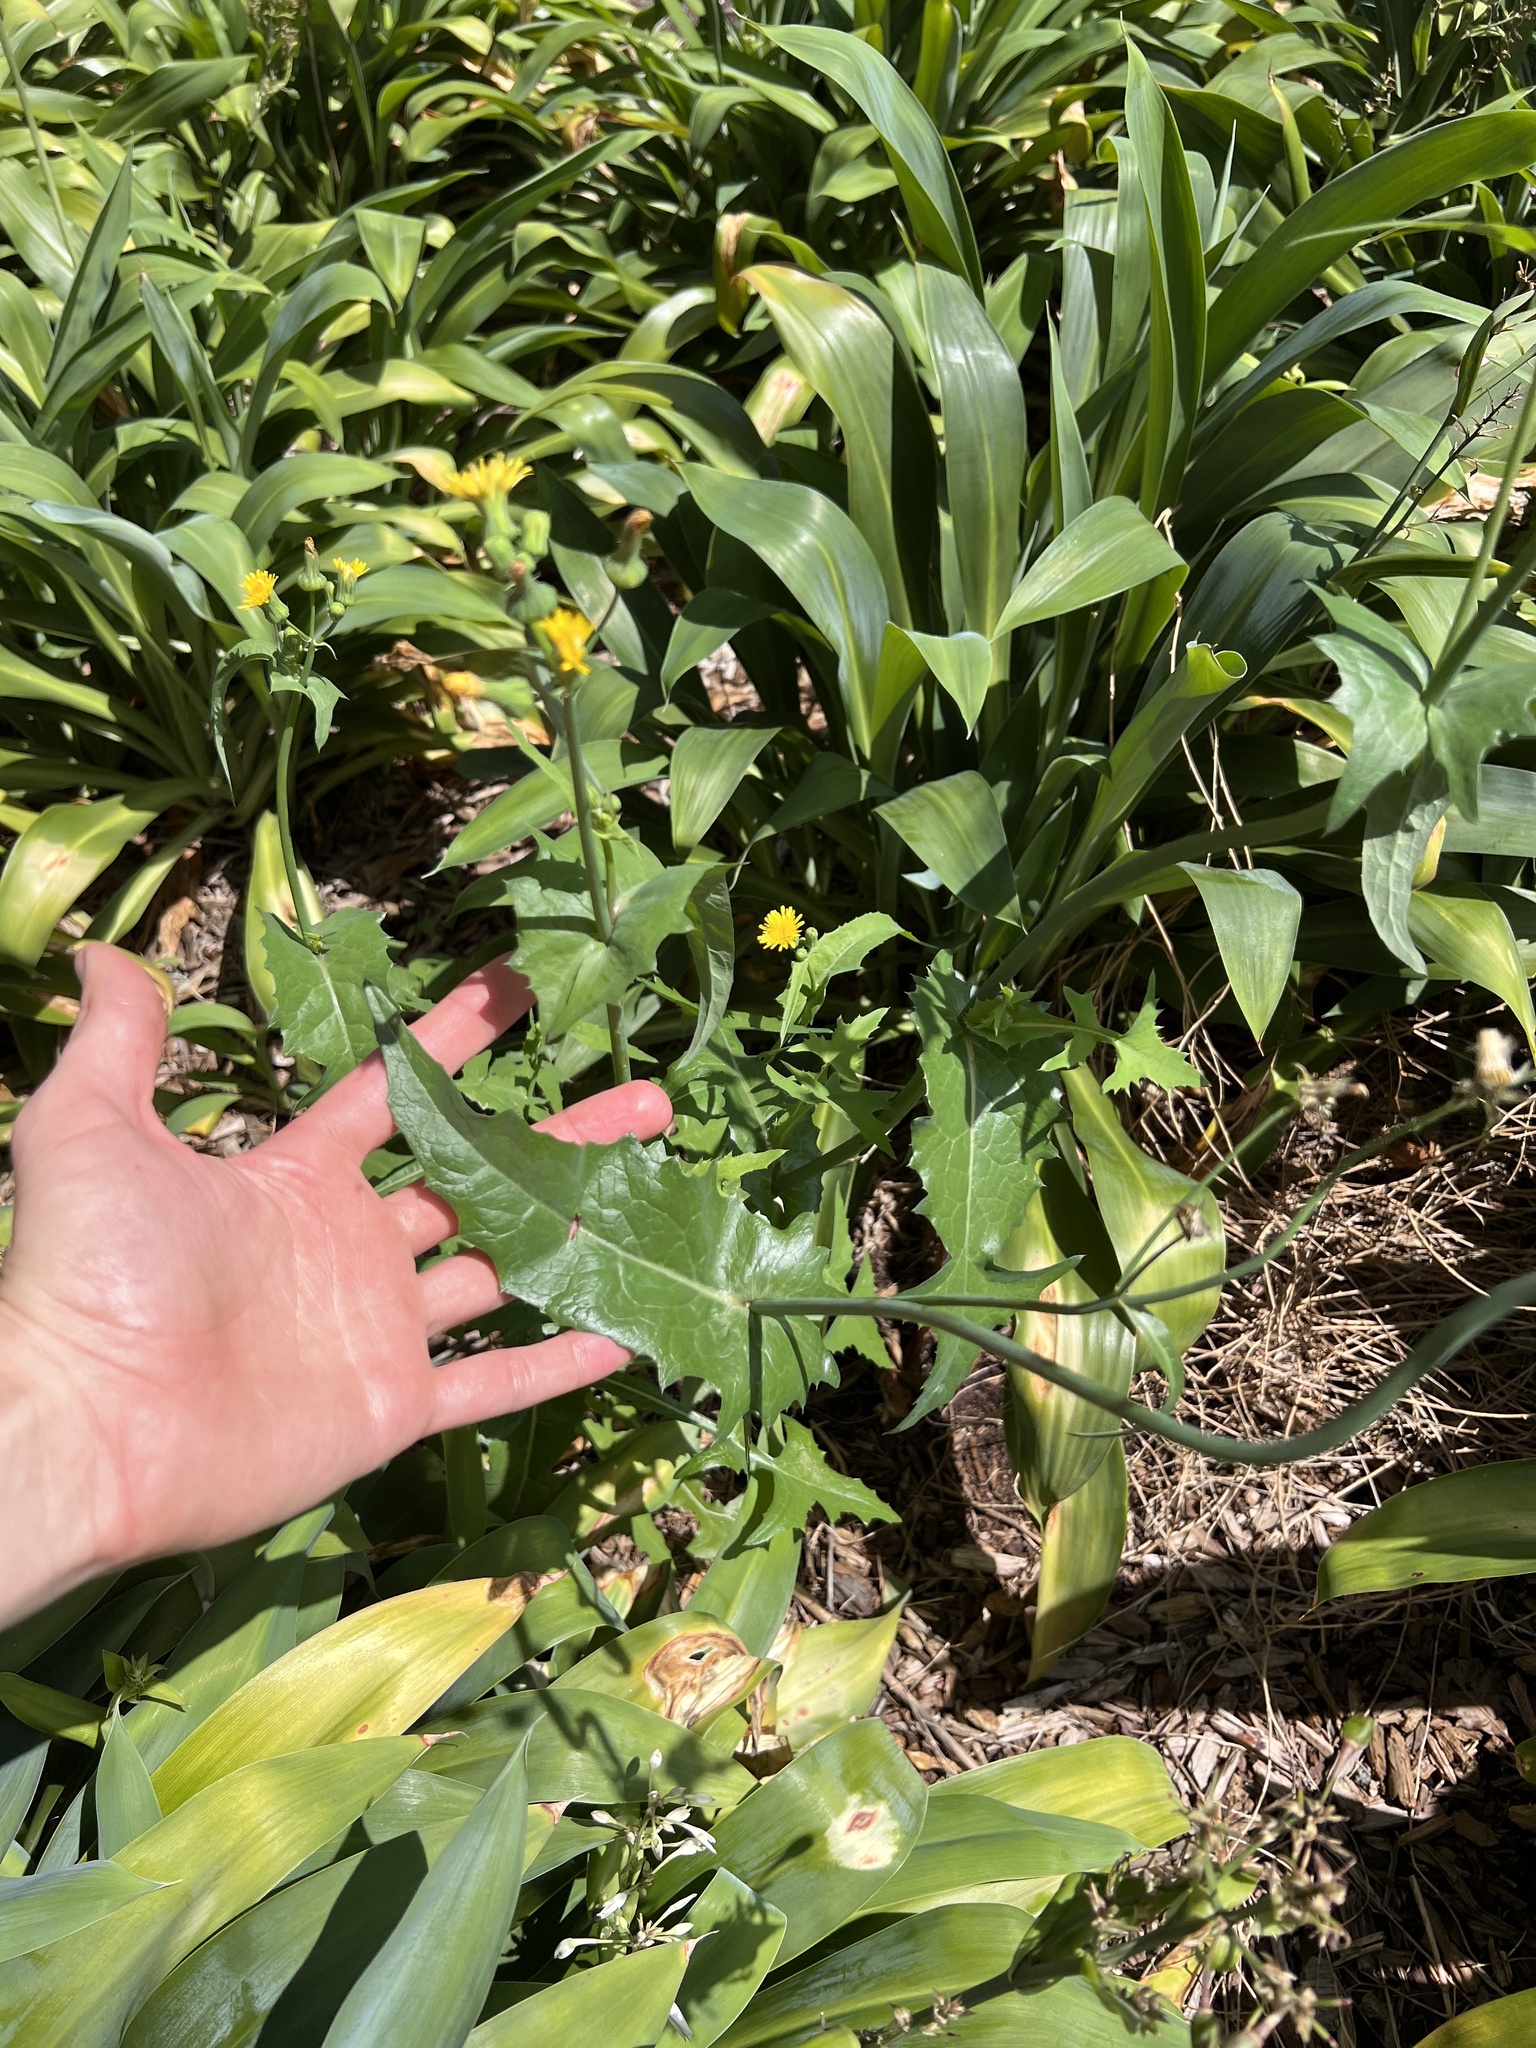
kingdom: Plantae
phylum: Tracheophyta
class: Magnoliopsida
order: Asterales
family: Asteraceae
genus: Sonchus
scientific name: Sonchus oleraceus
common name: Common sowthistle
